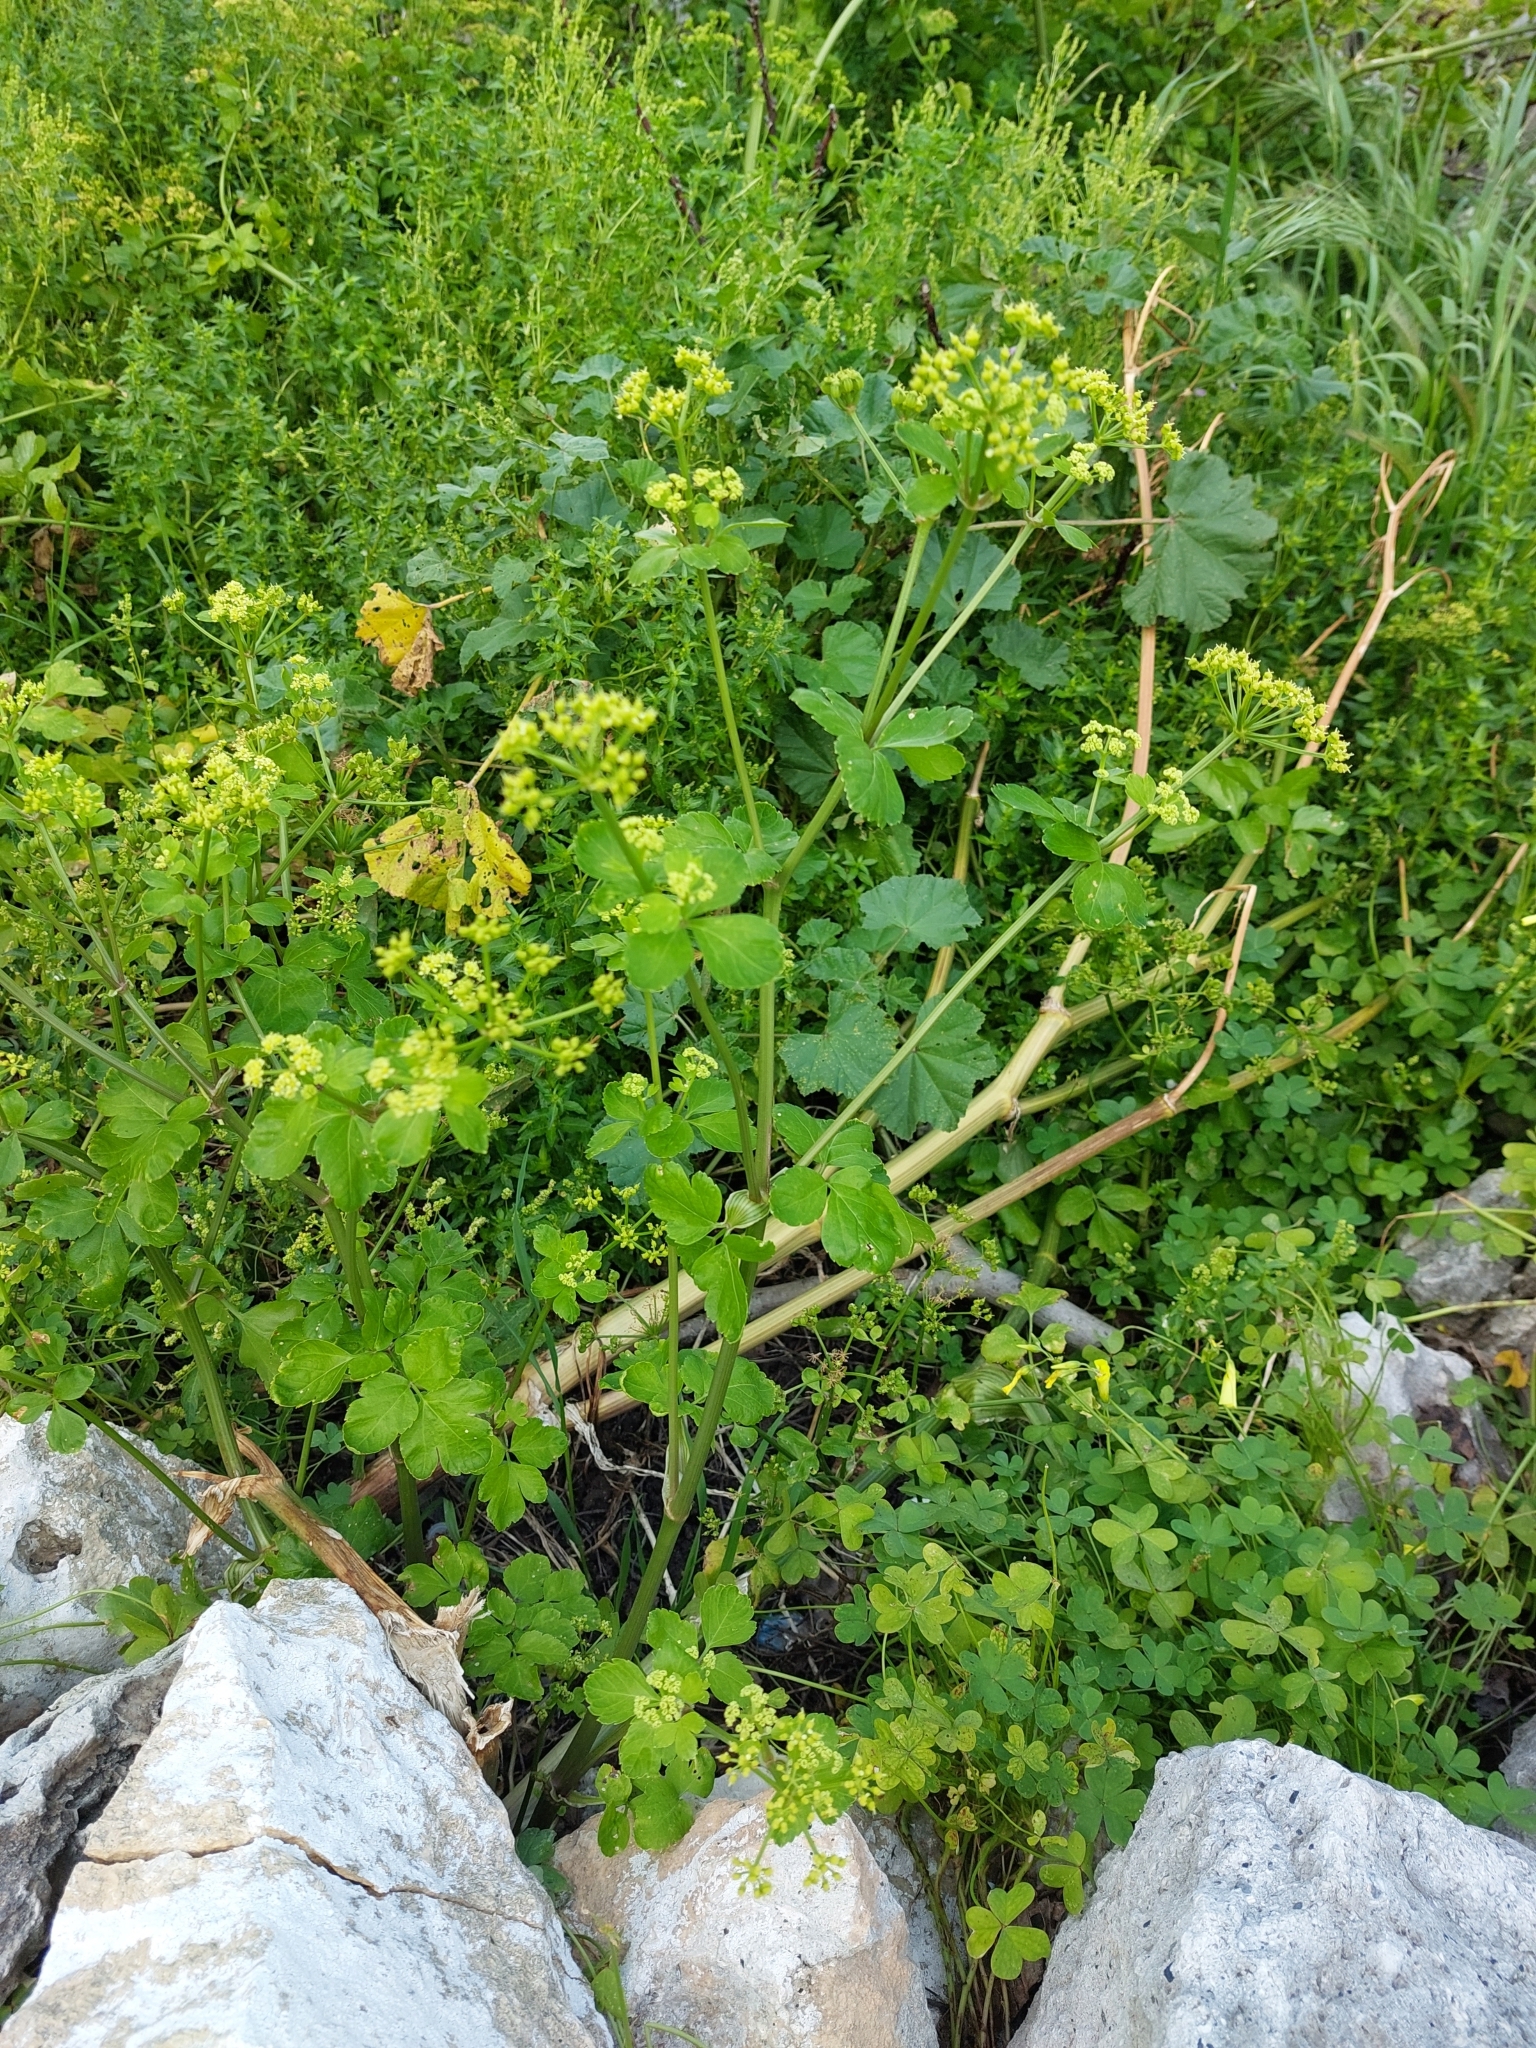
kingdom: Plantae
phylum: Tracheophyta
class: Magnoliopsida
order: Apiales
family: Apiaceae
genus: Smyrnium
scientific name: Smyrnium olusatrum
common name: Alexanders
